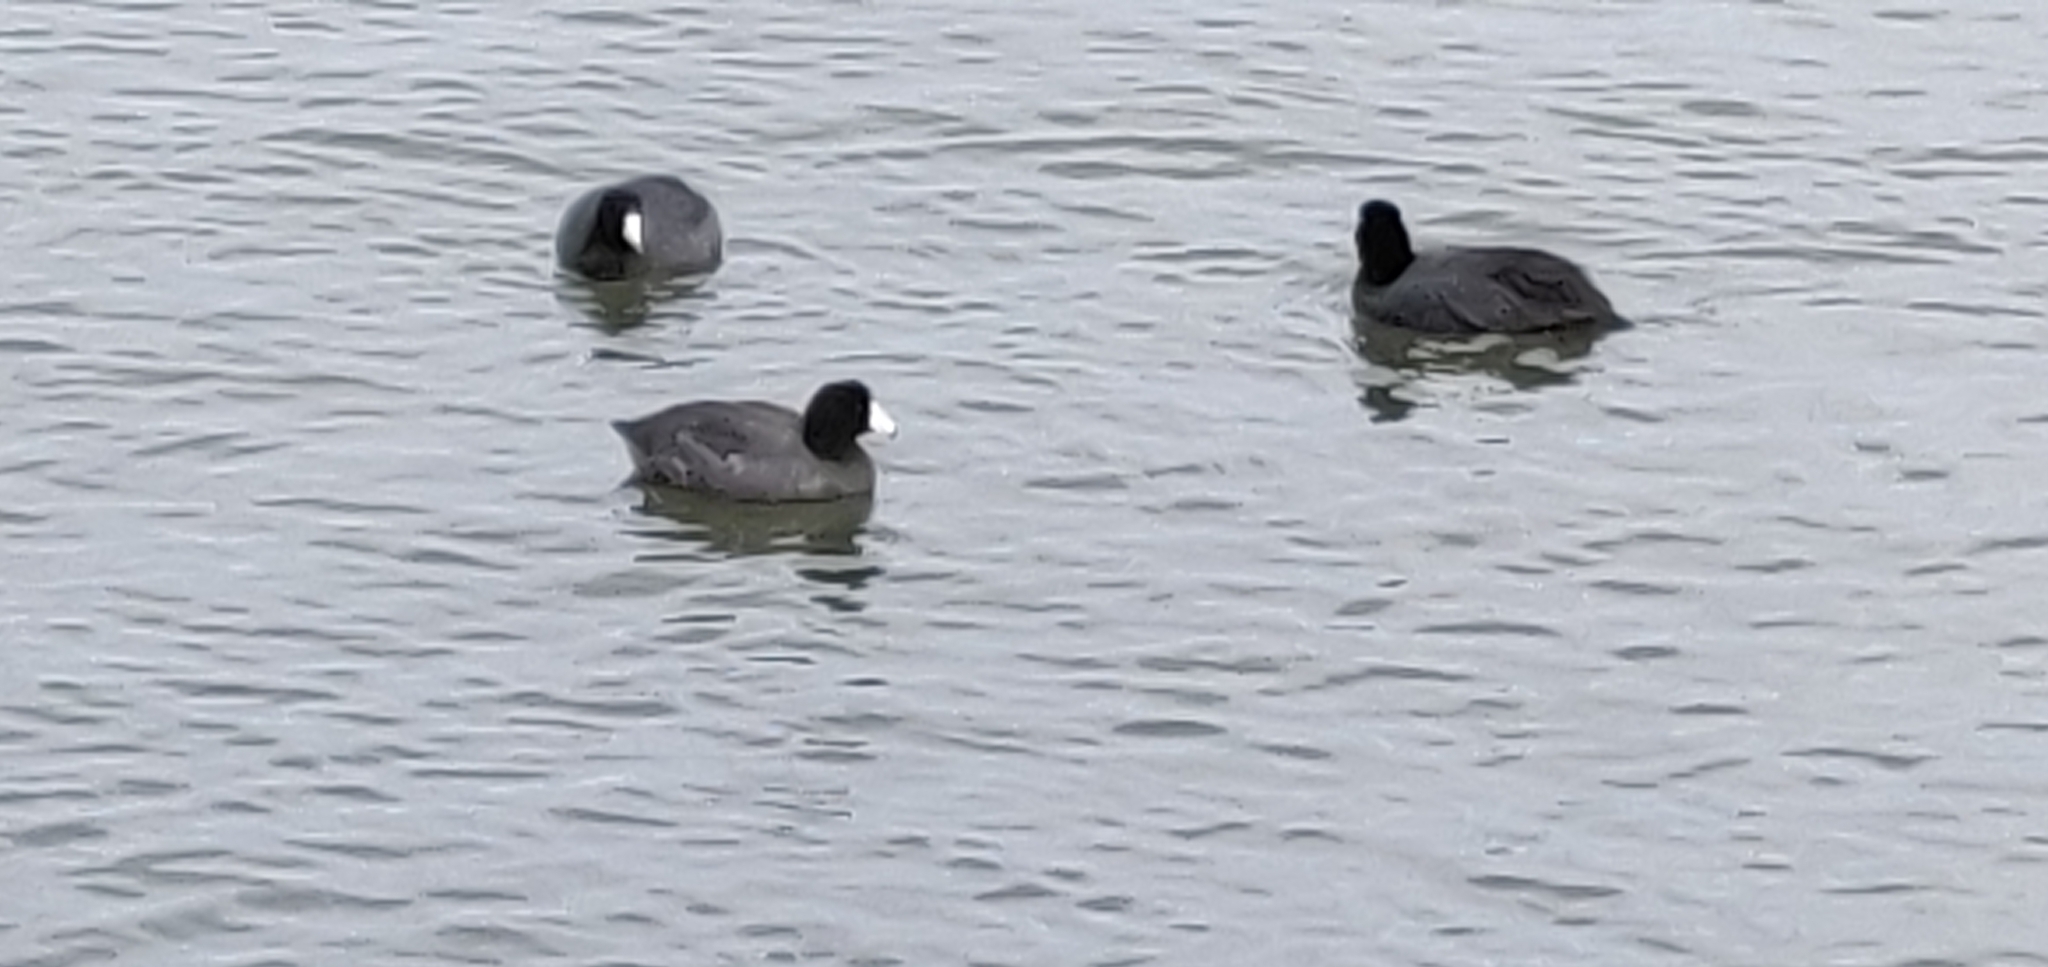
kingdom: Animalia
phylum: Chordata
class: Aves
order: Gruiformes
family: Rallidae
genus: Fulica
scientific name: Fulica americana
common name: American coot
